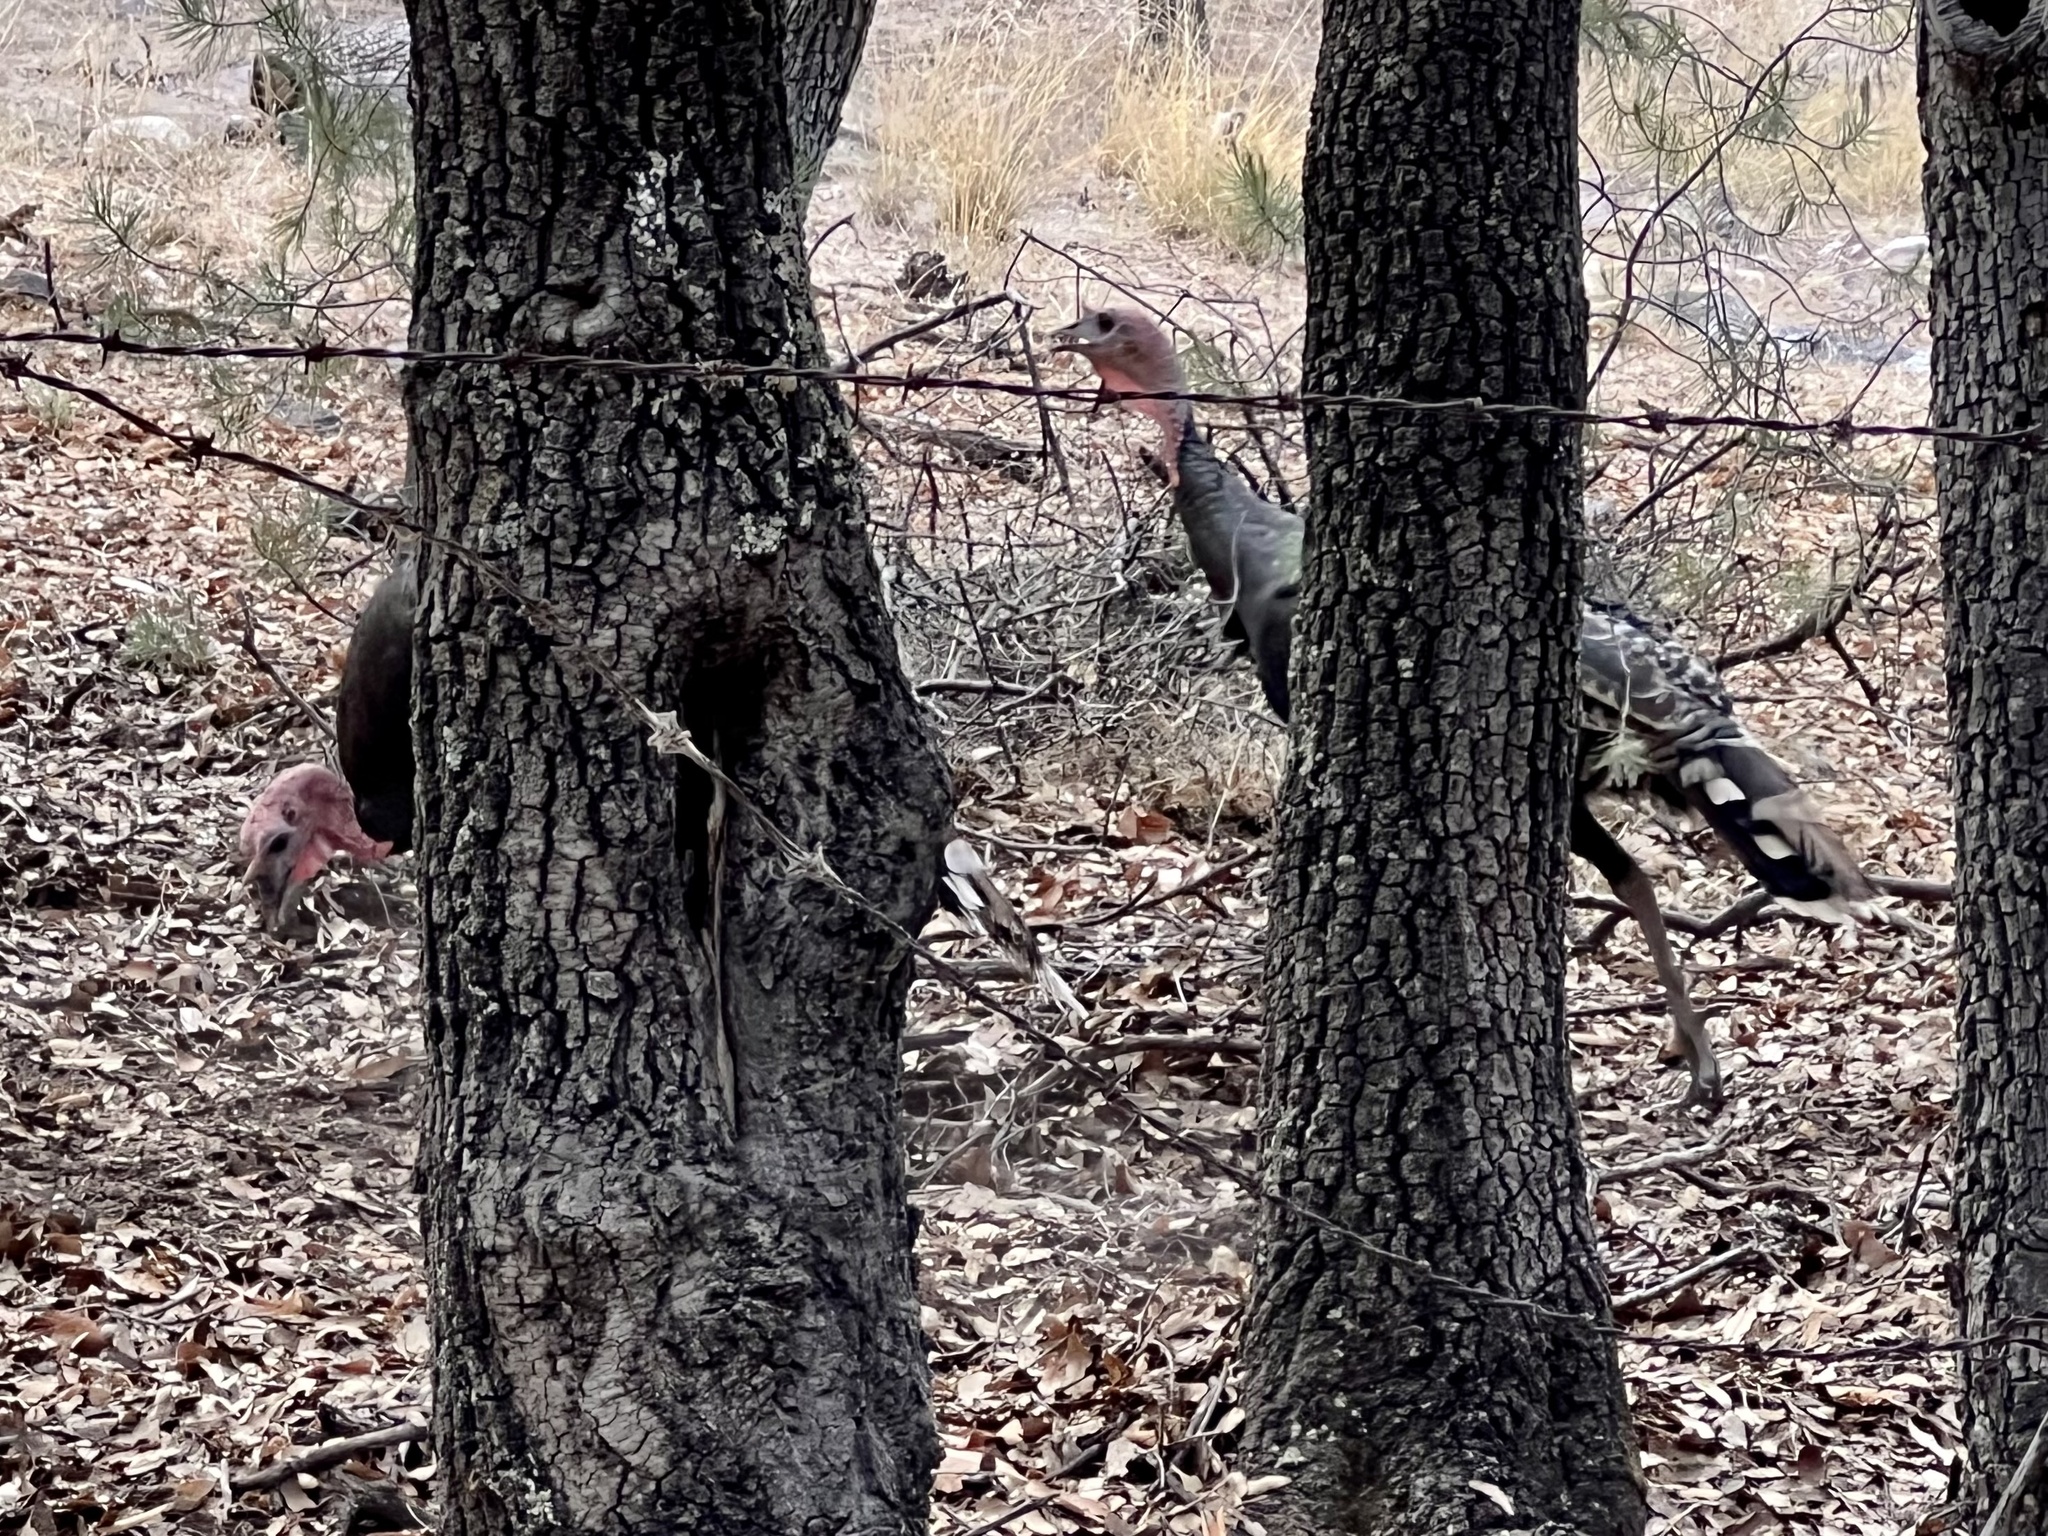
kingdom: Animalia
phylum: Chordata
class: Aves
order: Galliformes
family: Phasianidae
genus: Meleagris
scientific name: Meleagris gallopavo
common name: Wild turkey
